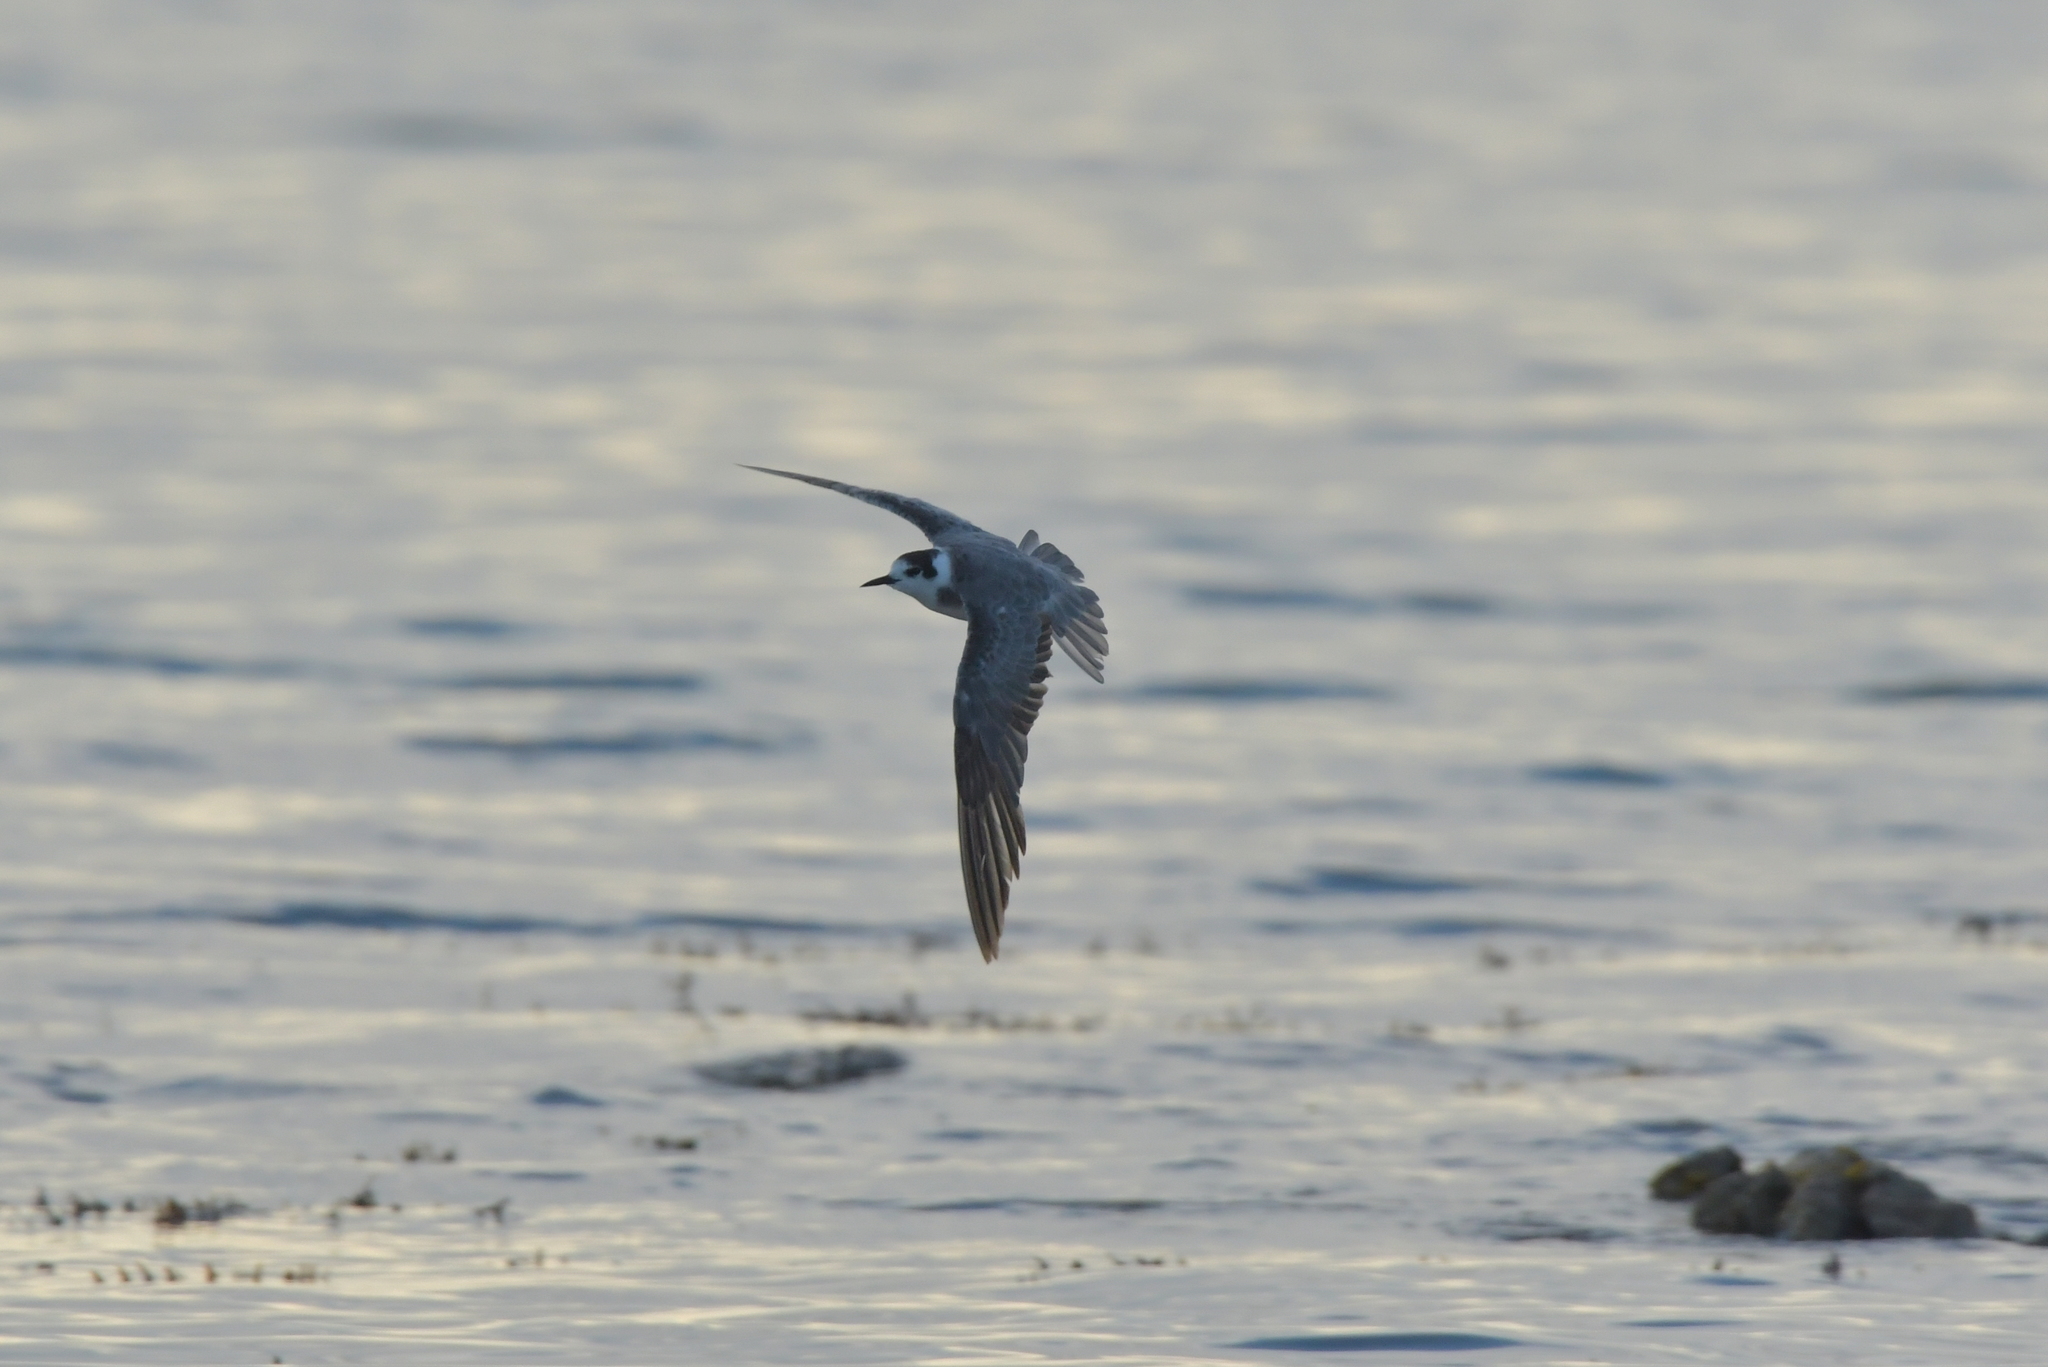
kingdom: Animalia
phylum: Chordata
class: Aves
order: Charadriiformes
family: Laridae
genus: Chlidonias
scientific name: Chlidonias niger
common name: Black tern
